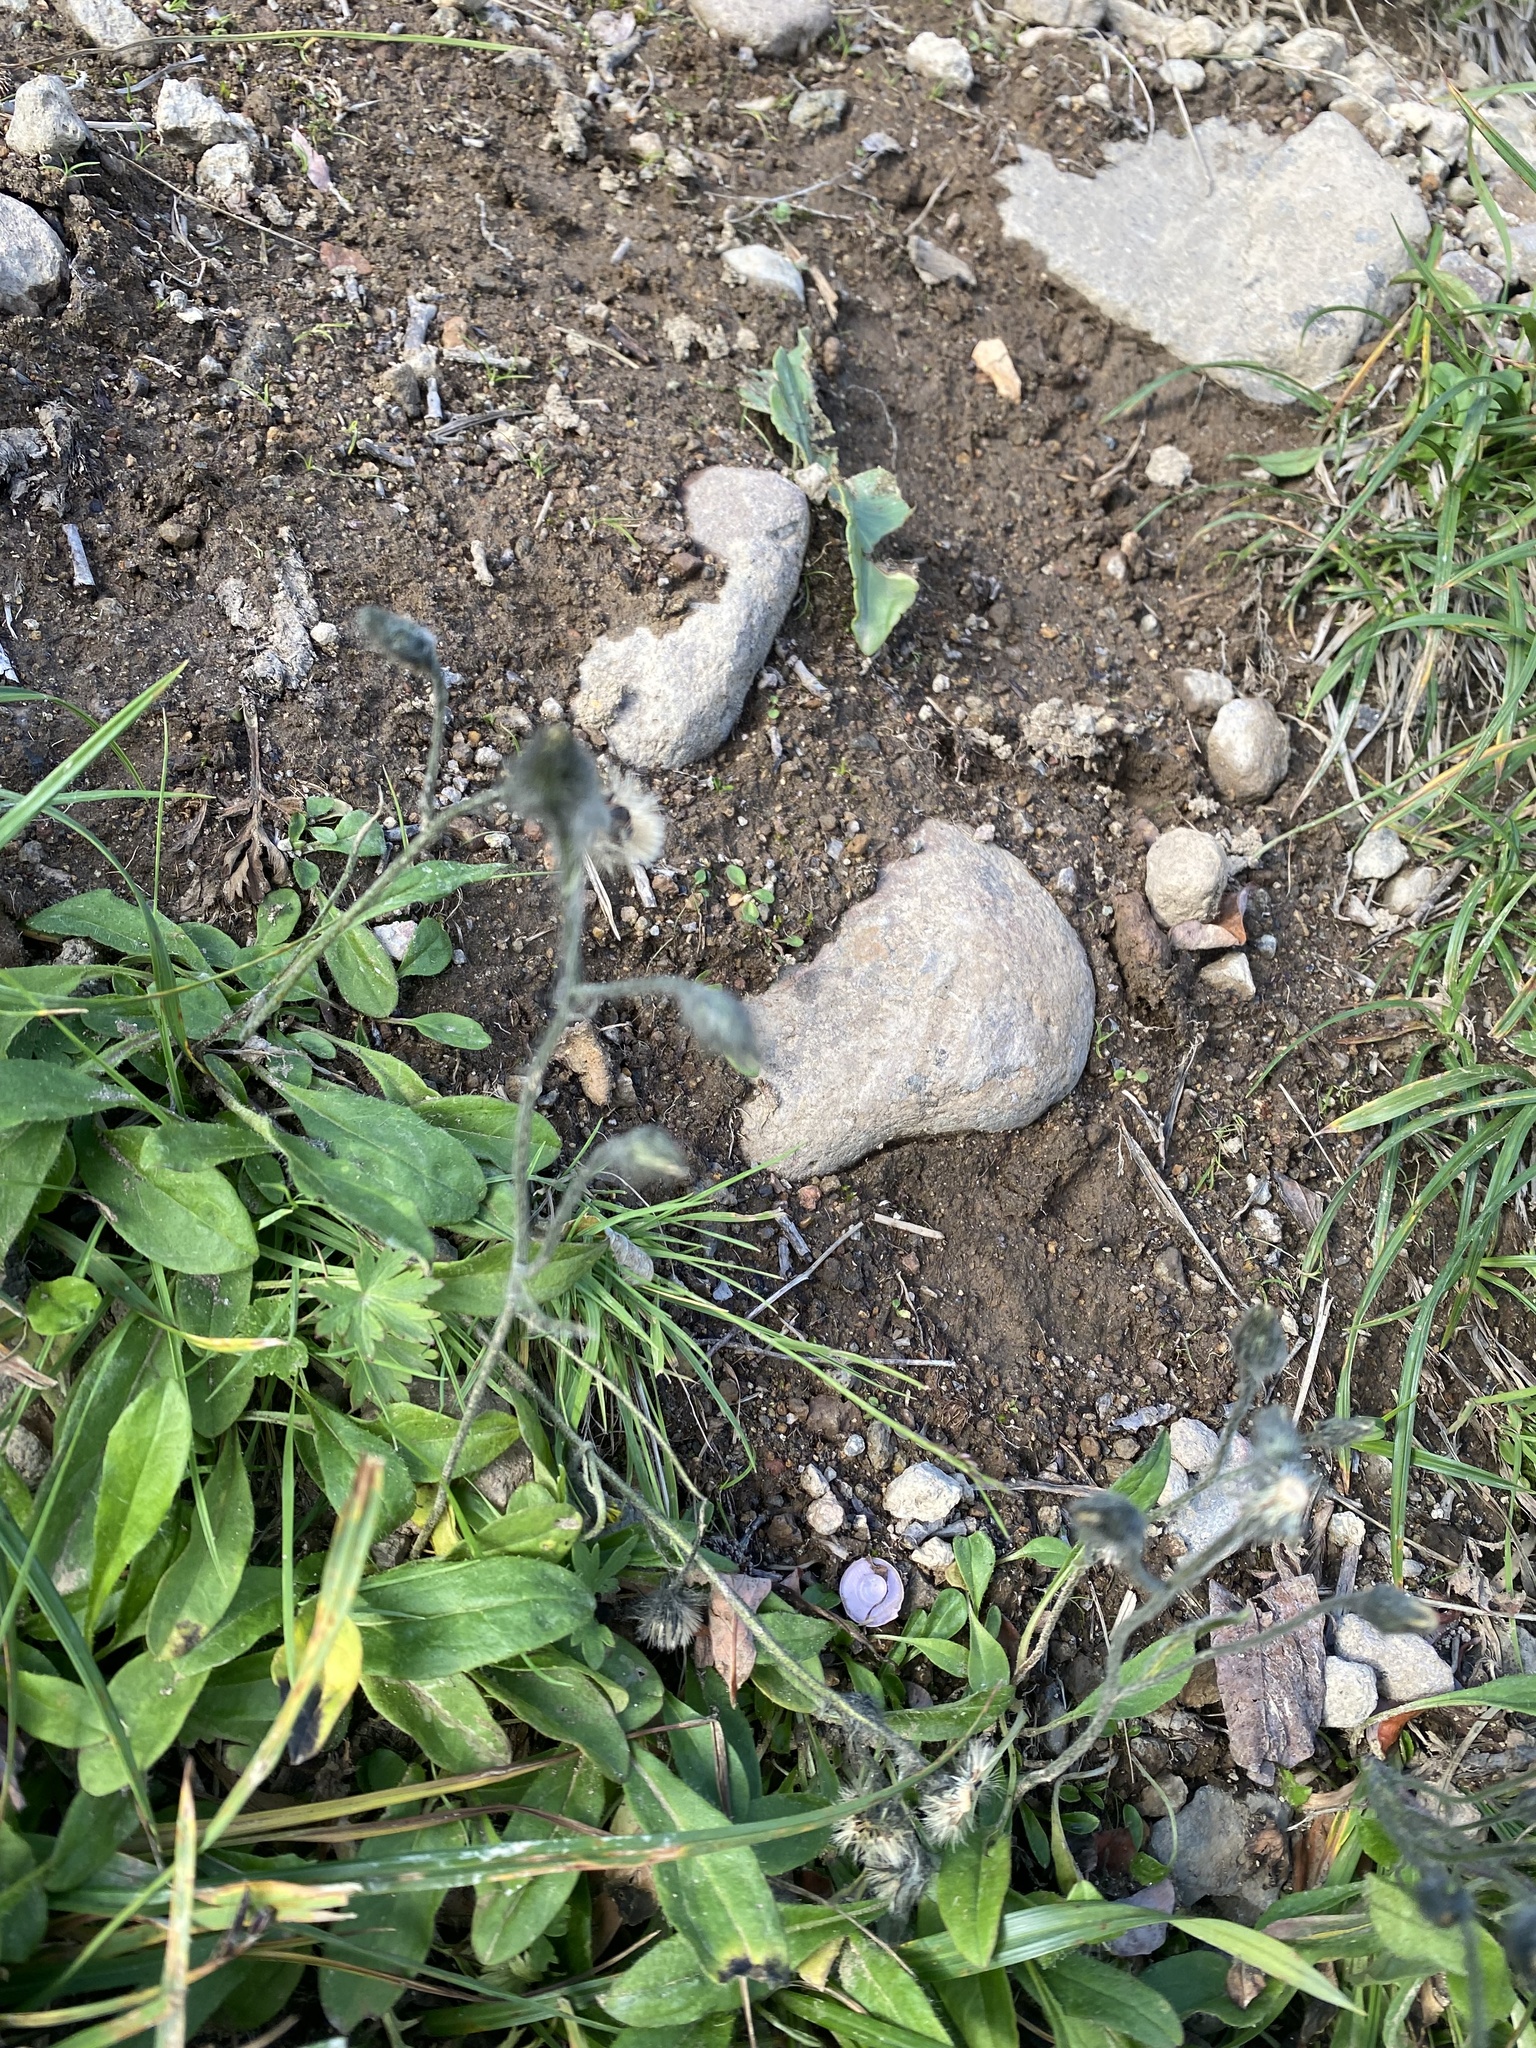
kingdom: Plantae
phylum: Tracheophyta
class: Magnoliopsida
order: Asterales
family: Asteraceae
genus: Hieracium
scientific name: Hieracium triste
